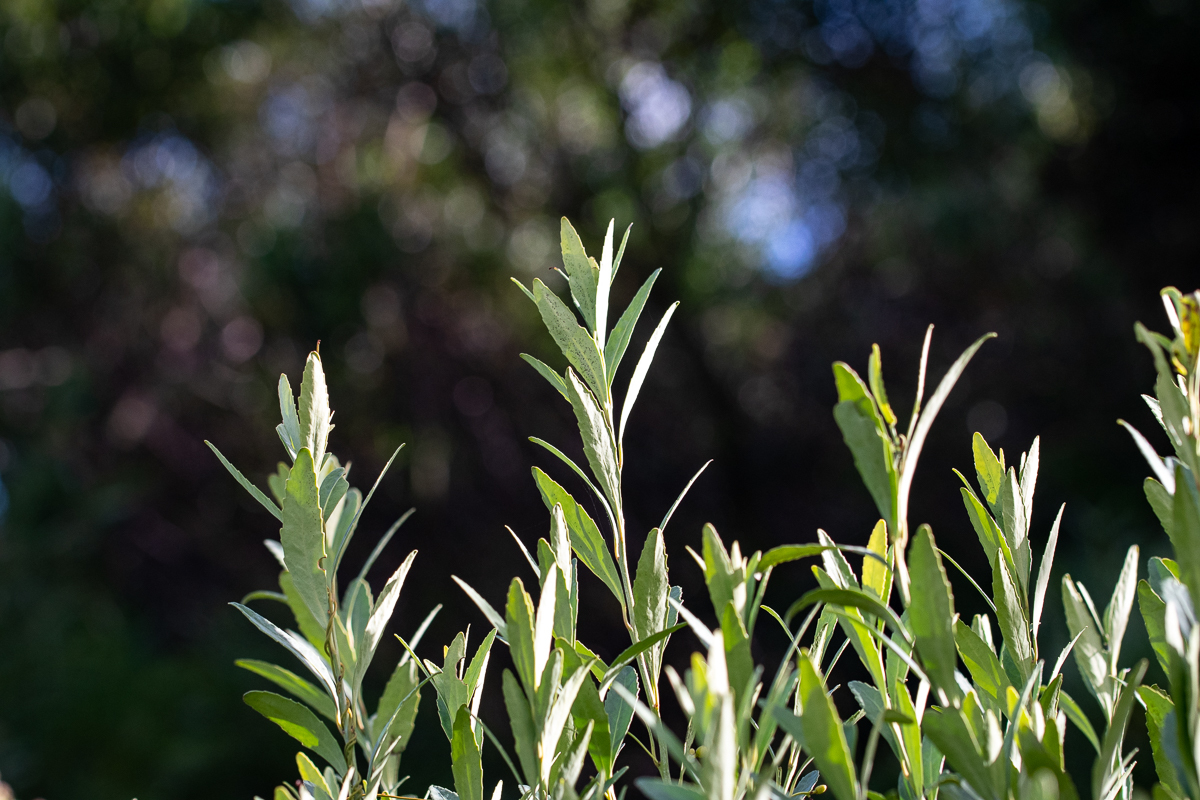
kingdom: Plantae
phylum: Tracheophyta
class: Magnoliopsida
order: Lamiales
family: Scrophulariaceae
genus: Buddleja
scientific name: Buddleja saligna
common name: False olive
